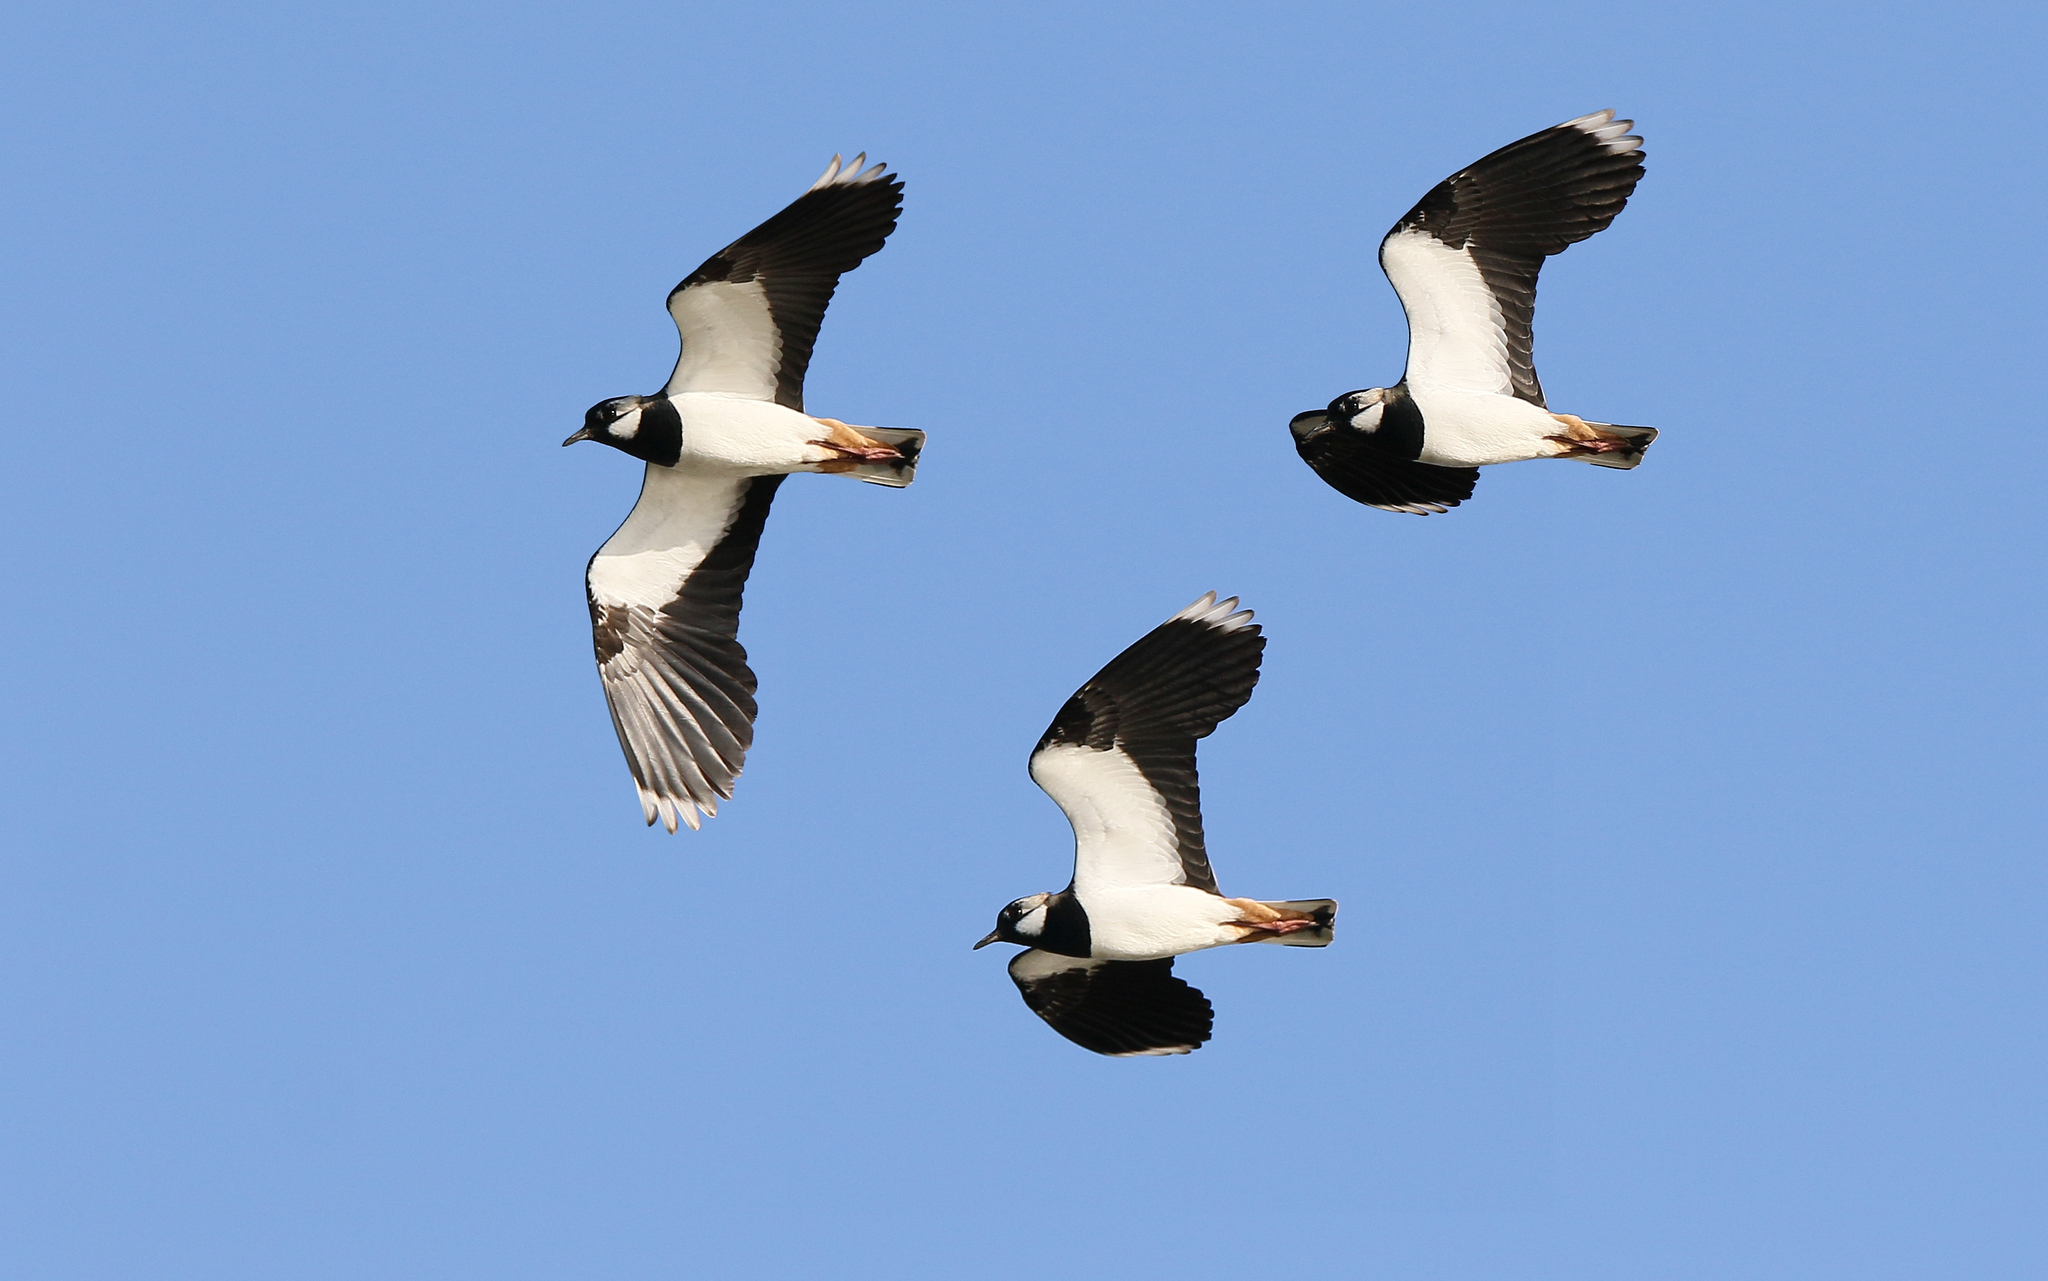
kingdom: Animalia
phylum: Chordata
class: Aves
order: Charadriiformes
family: Charadriidae
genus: Vanellus
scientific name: Vanellus vanellus
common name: Northern lapwing
